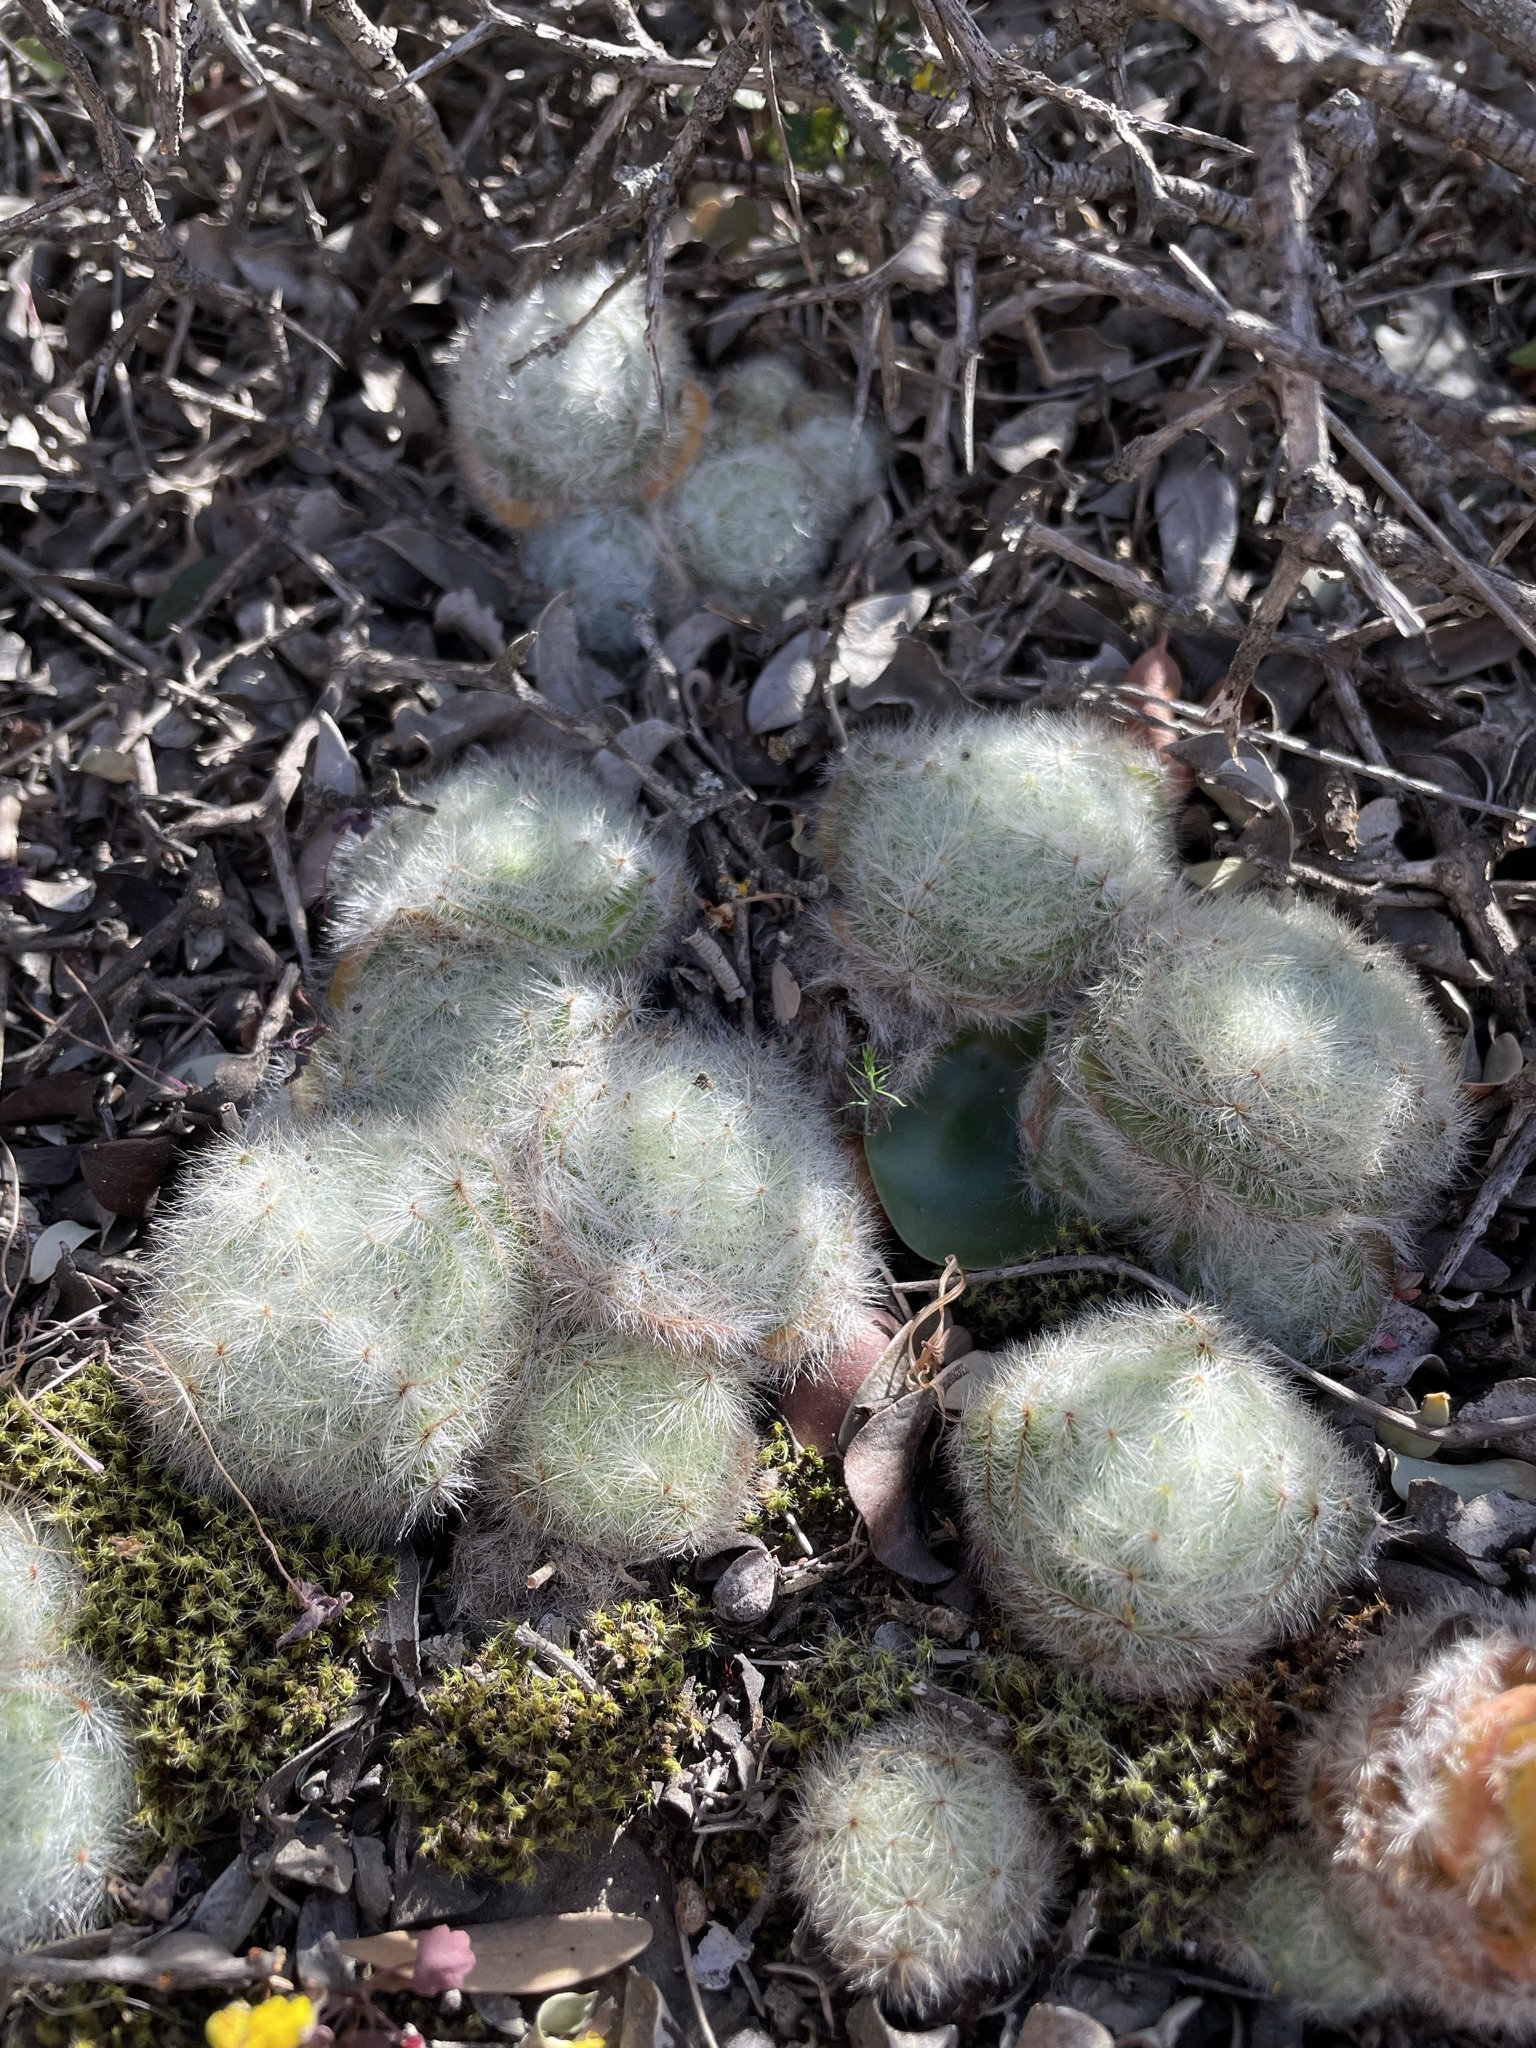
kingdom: Plantae
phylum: Tracheophyta
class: Magnoliopsida
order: Saxifragales
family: Crassulaceae
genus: Crassula
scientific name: Crassula barbata
